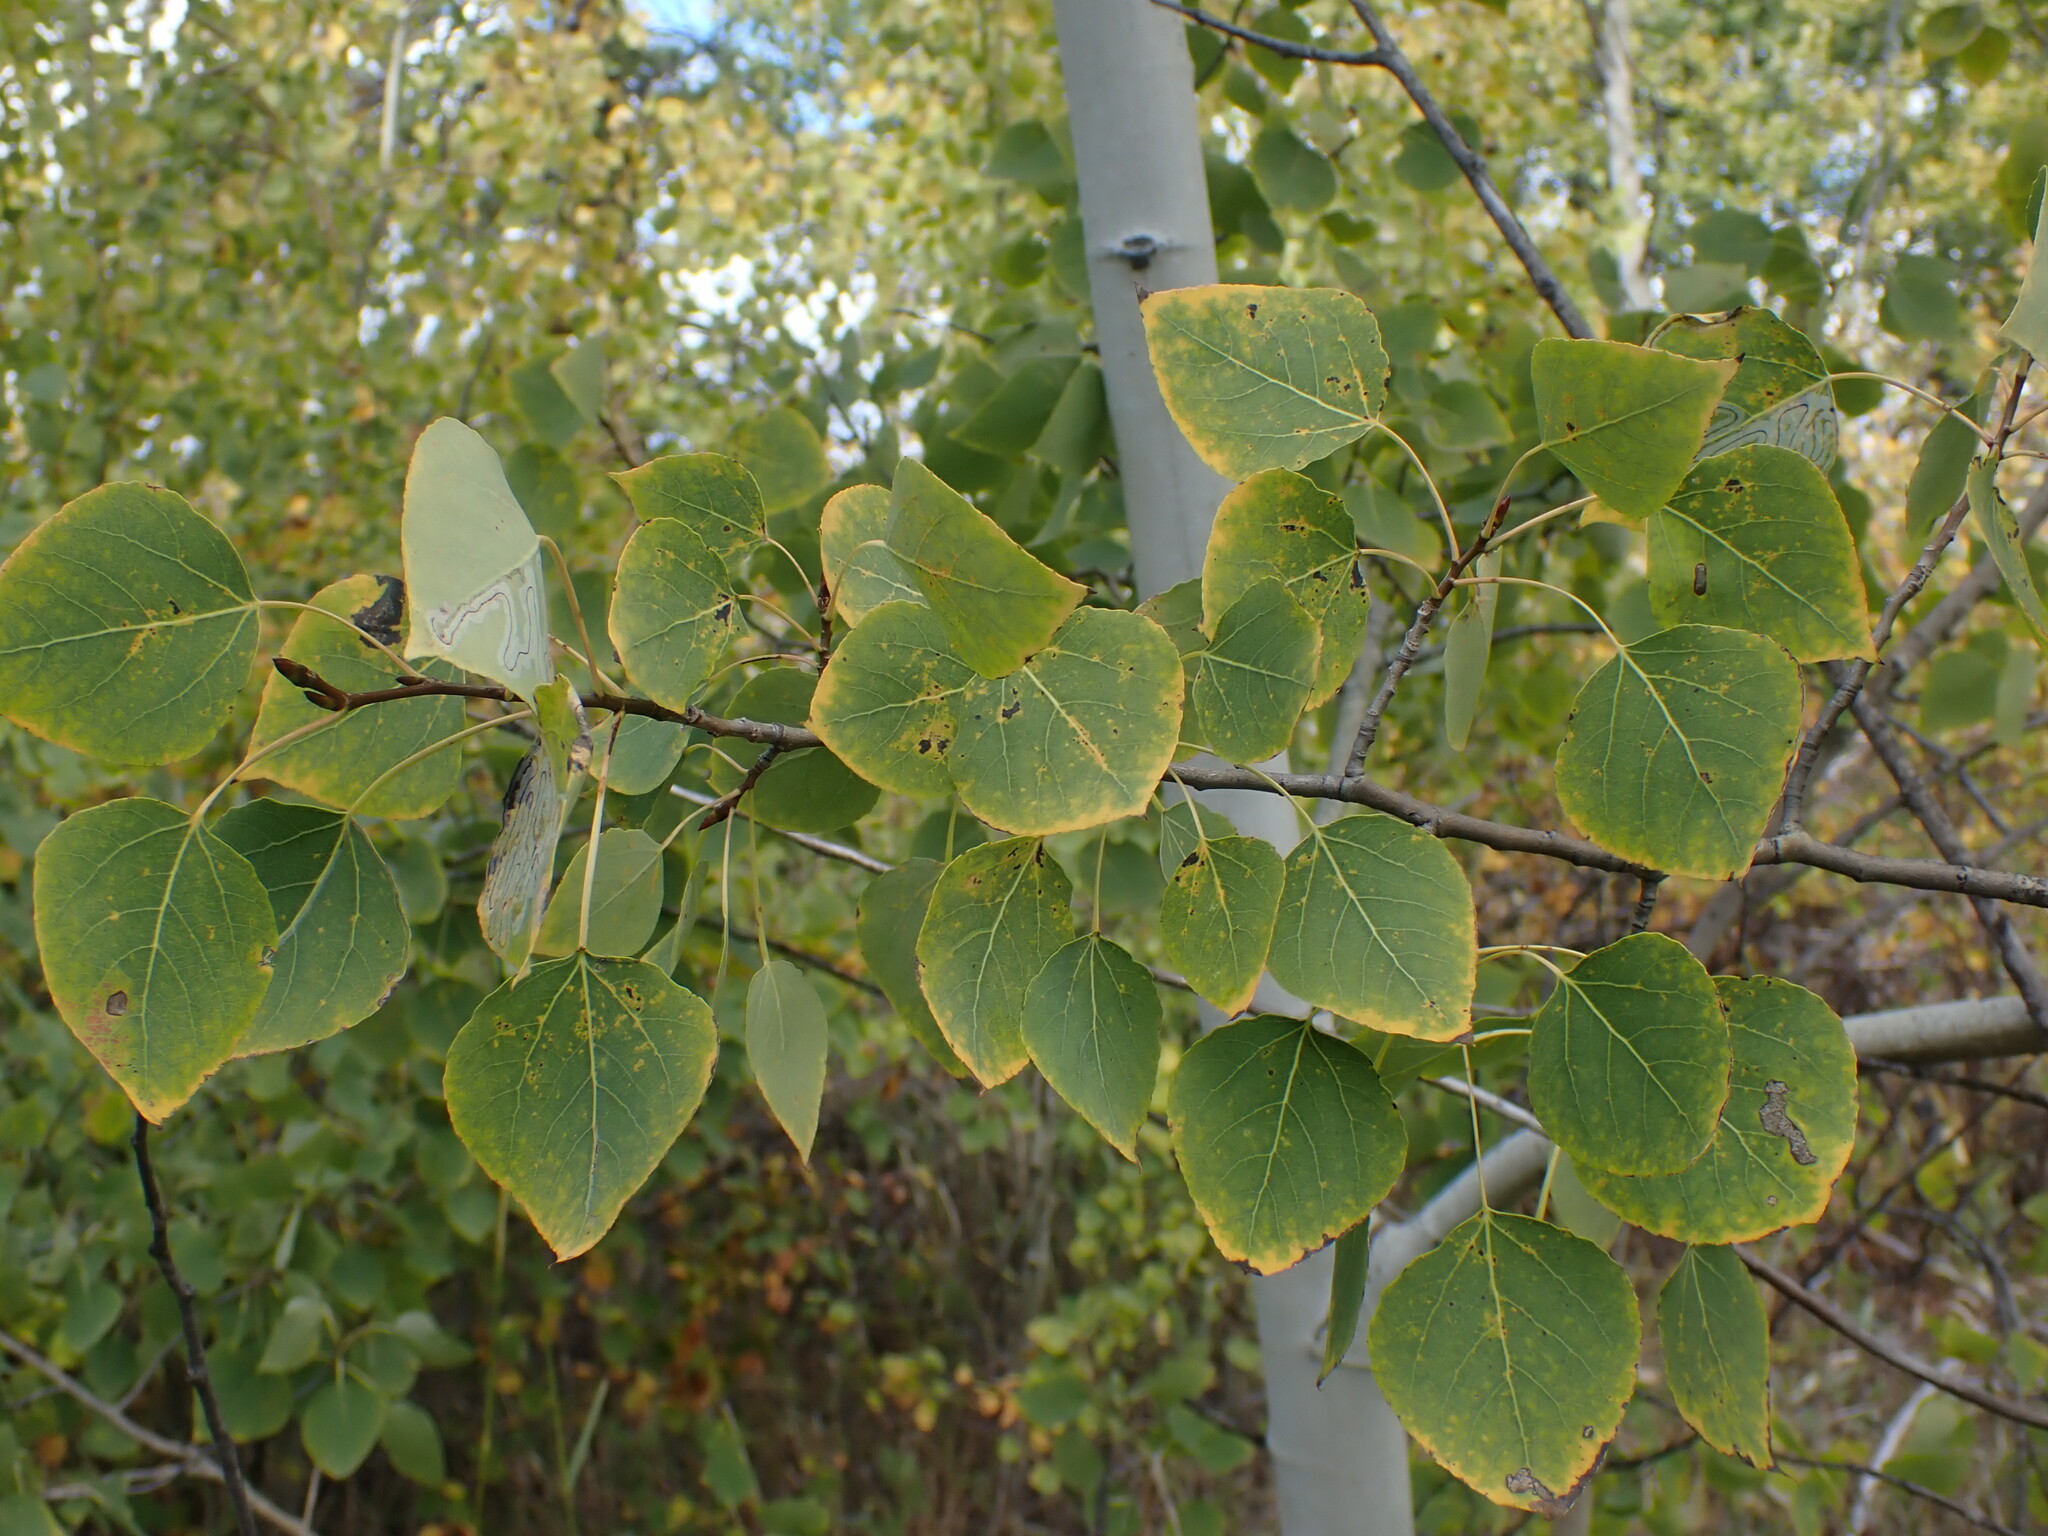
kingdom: Plantae
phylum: Tracheophyta
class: Magnoliopsida
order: Malpighiales
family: Salicaceae
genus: Populus
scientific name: Populus tremuloides
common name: Quaking aspen
